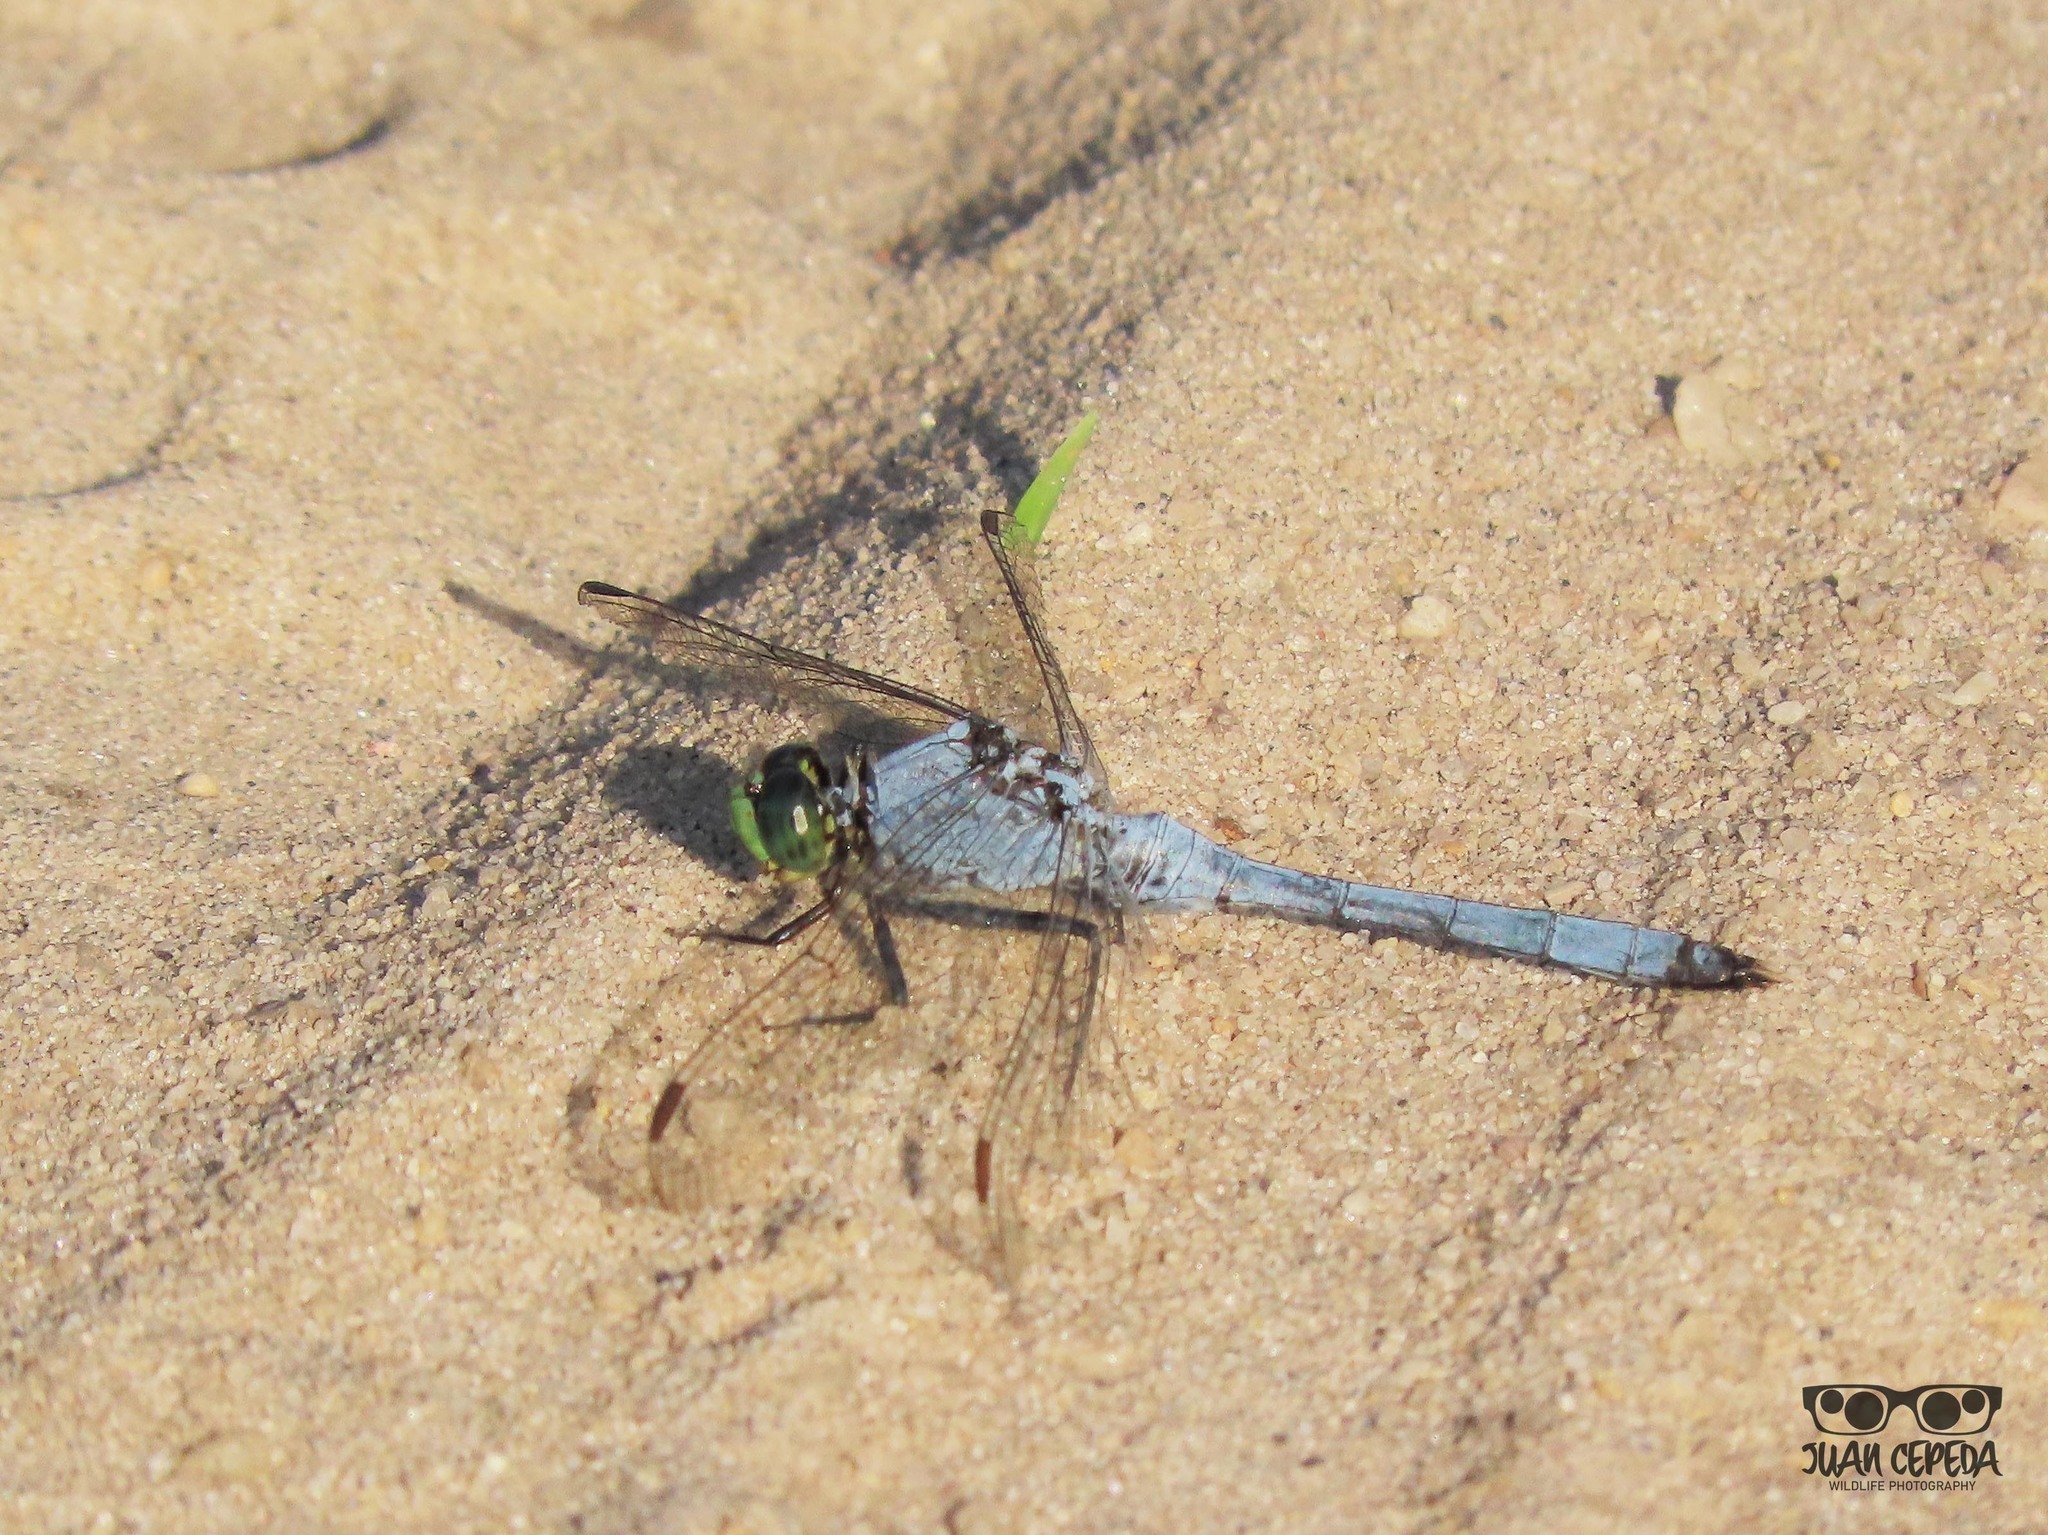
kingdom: Animalia
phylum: Arthropoda
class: Insecta
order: Odonata
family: Libellulidae
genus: Erythemis
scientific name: Erythemis simplicicollis
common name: Eastern pondhawk
